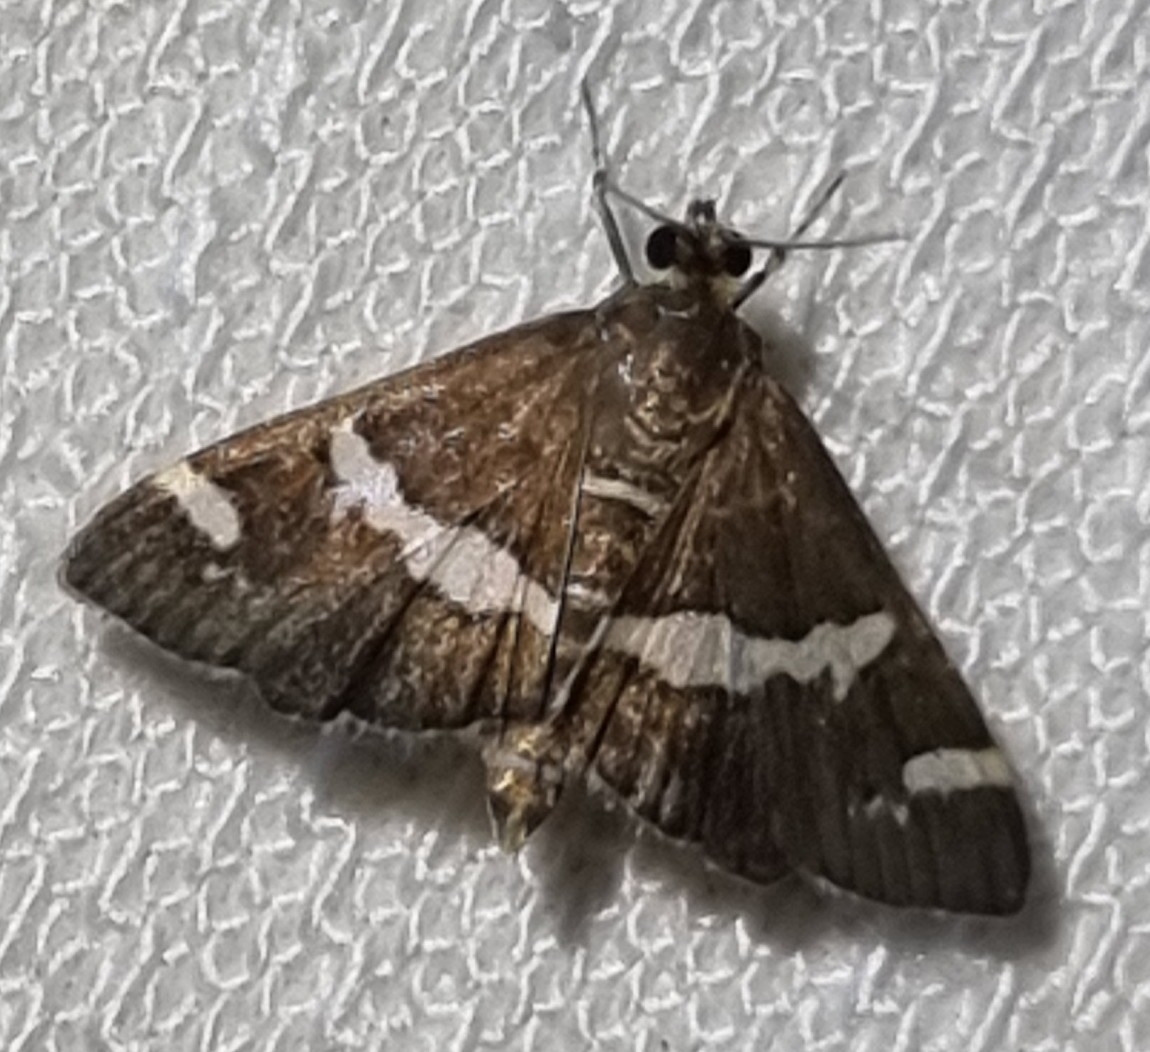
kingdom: Animalia
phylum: Arthropoda
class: Insecta
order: Lepidoptera
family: Crambidae
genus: Spoladea
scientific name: Spoladea recurvalis
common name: Beet webworm moth
